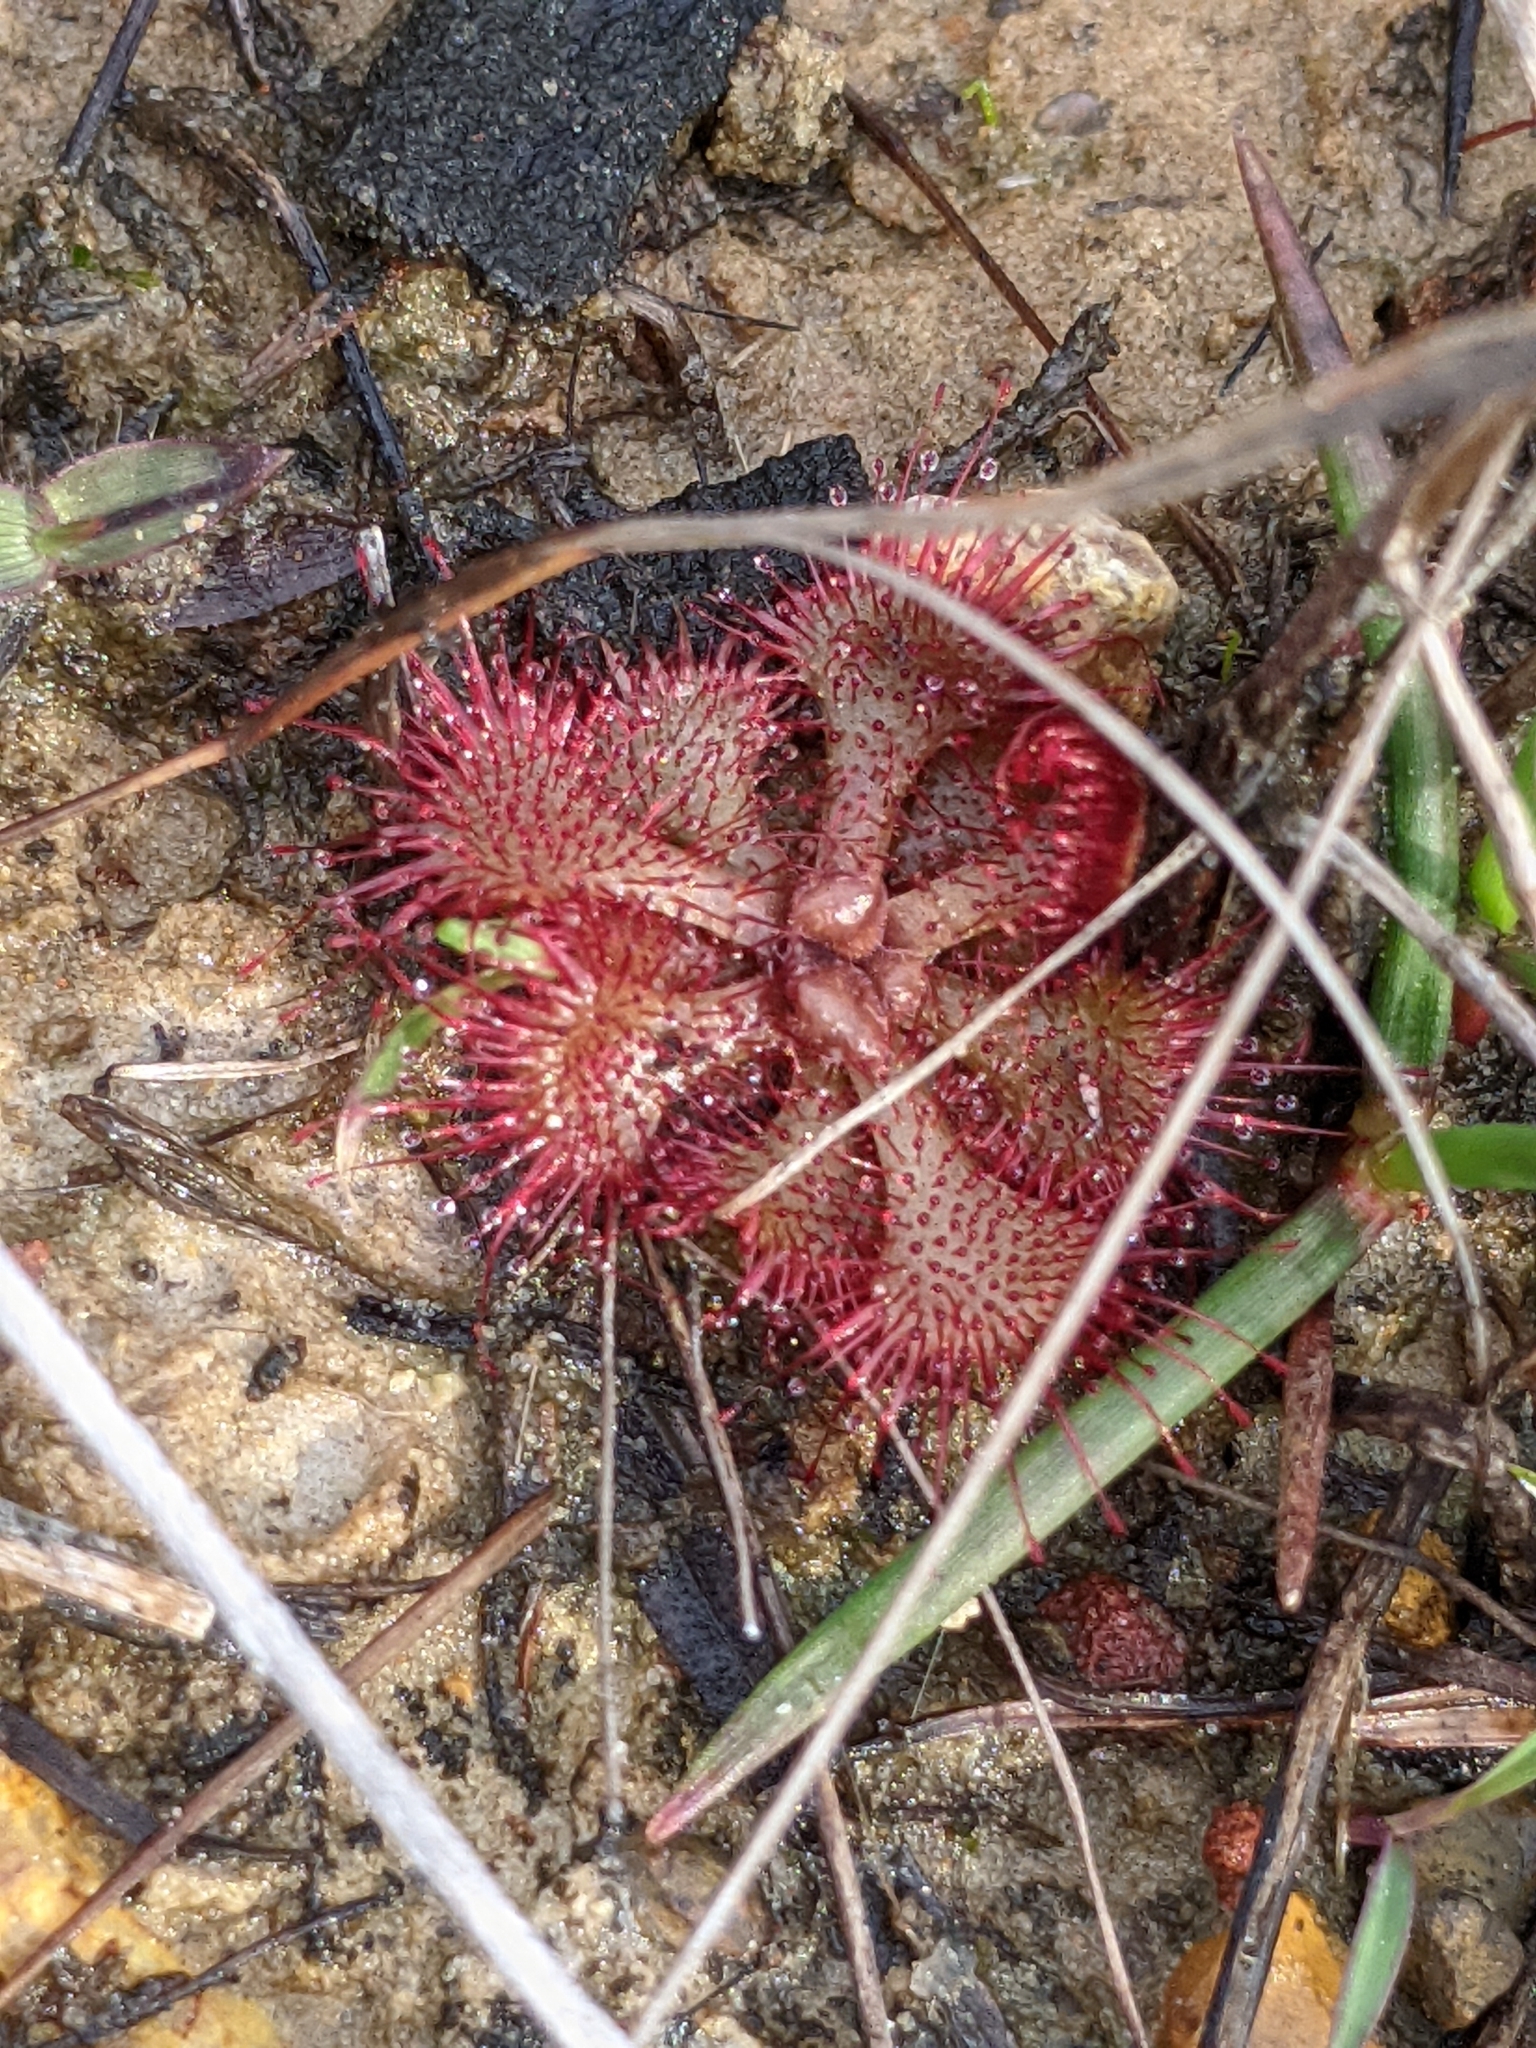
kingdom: Plantae
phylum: Tracheophyta
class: Magnoliopsida
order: Caryophyllales
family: Droseraceae
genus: Drosera
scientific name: Drosera brevifolia
